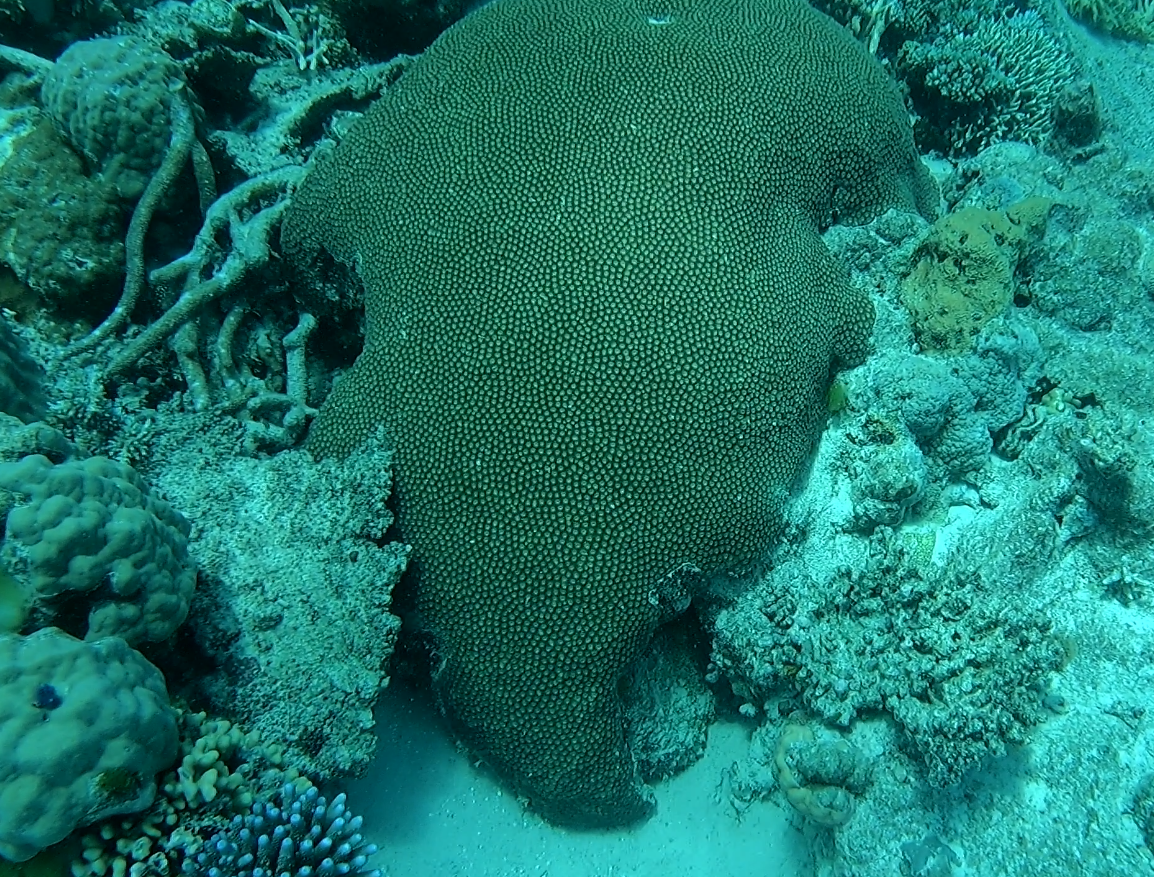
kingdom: Animalia
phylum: Cnidaria
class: Anthozoa
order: Scleractinia
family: Diploastraeidae
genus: Diploastrea
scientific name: Diploastrea heliopora
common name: Double-star coral
